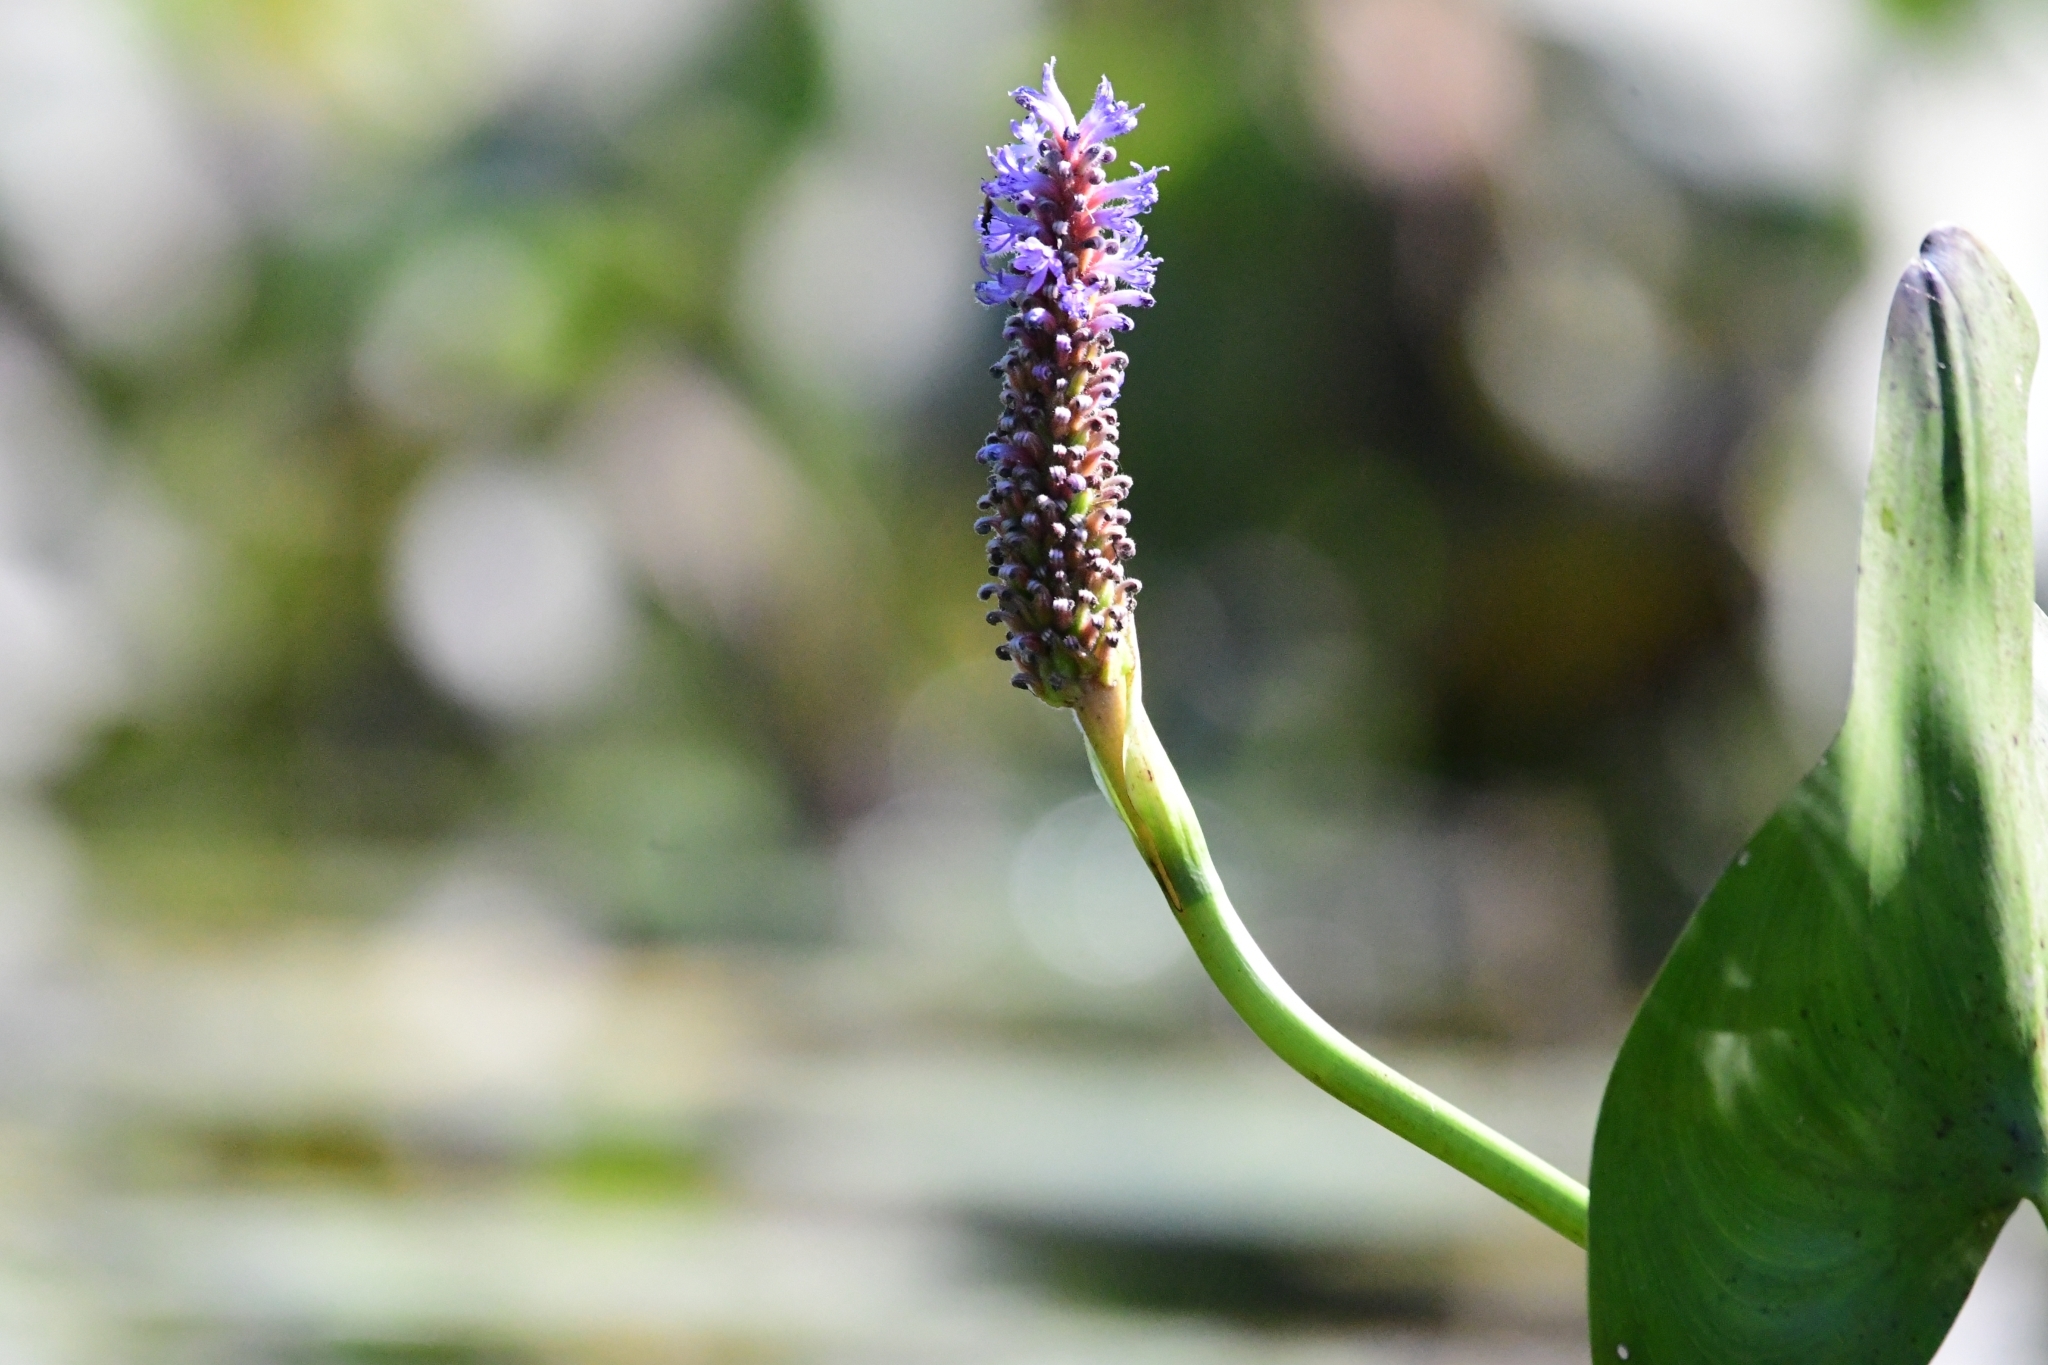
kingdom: Plantae
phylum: Tracheophyta
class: Liliopsida
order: Commelinales
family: Pontederiaceae
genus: Pontederia
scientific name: Pontederia cordata
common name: Pickerelweed
